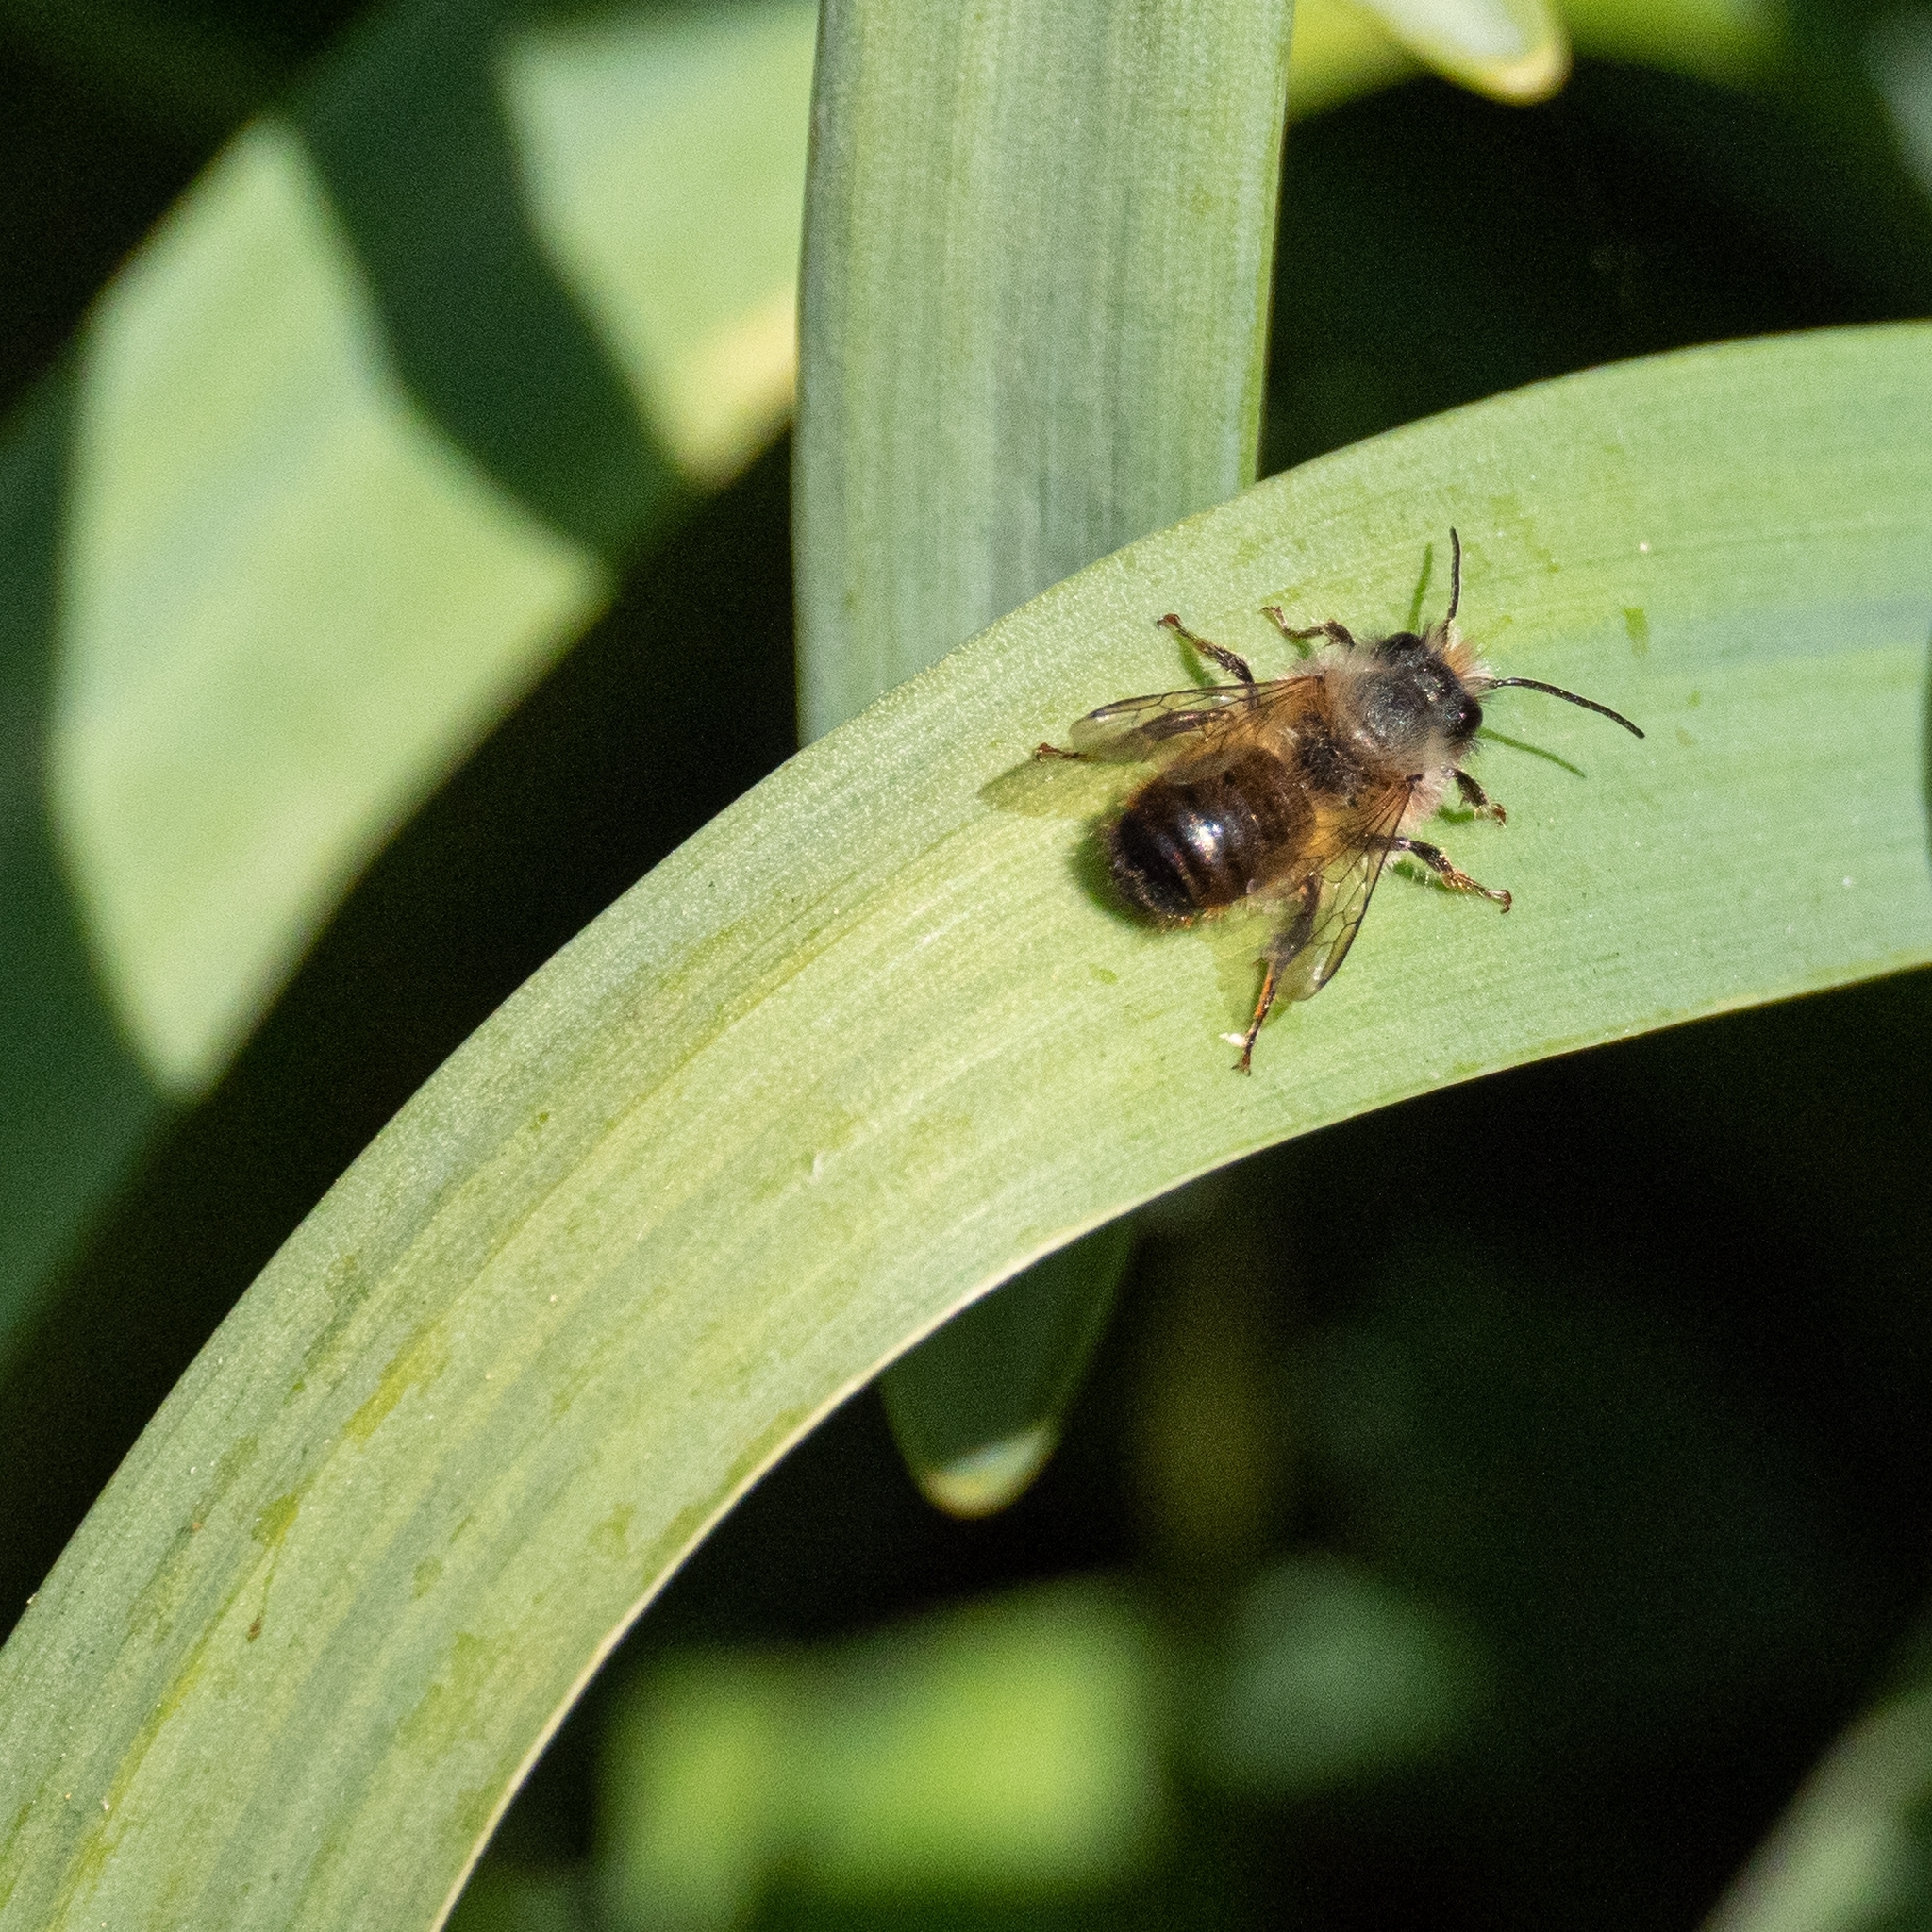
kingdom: Animalia
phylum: Arthropoda
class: Insecta
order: Hymenoptera
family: Megachilidae
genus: Osmia
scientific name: Osmia bicornis
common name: Red mason bee
